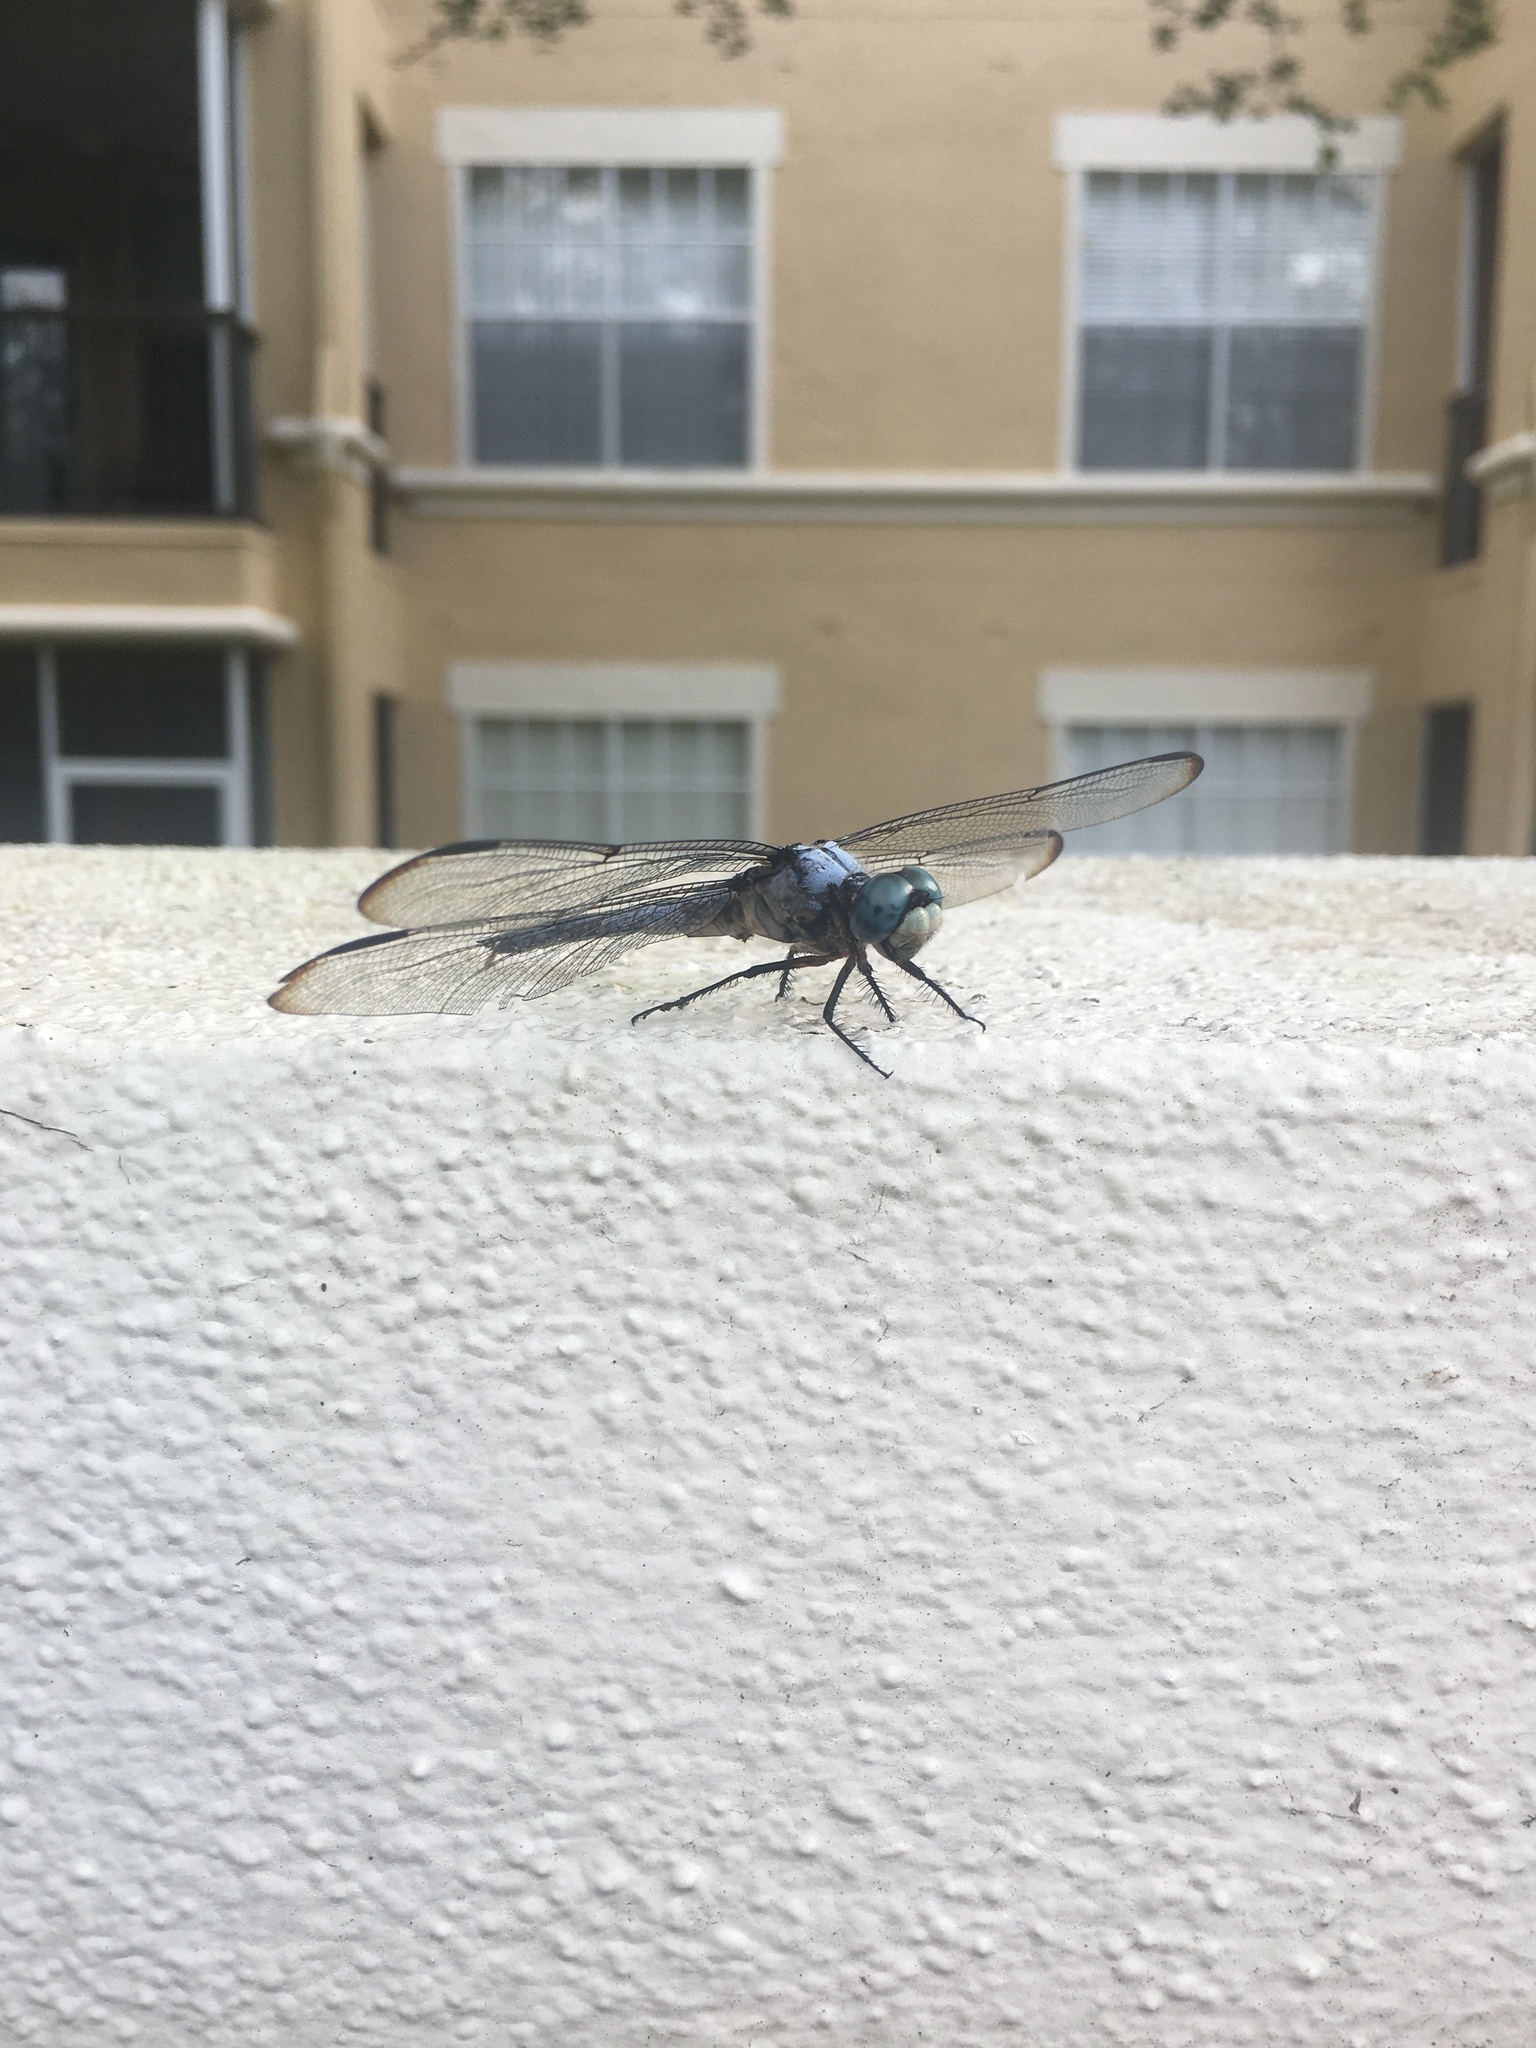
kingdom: Animalia
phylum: Arthropoda
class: Insecta
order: Odonata
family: Libellulidae
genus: Libellula
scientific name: Libellula vibrans
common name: Great blue skimmer
